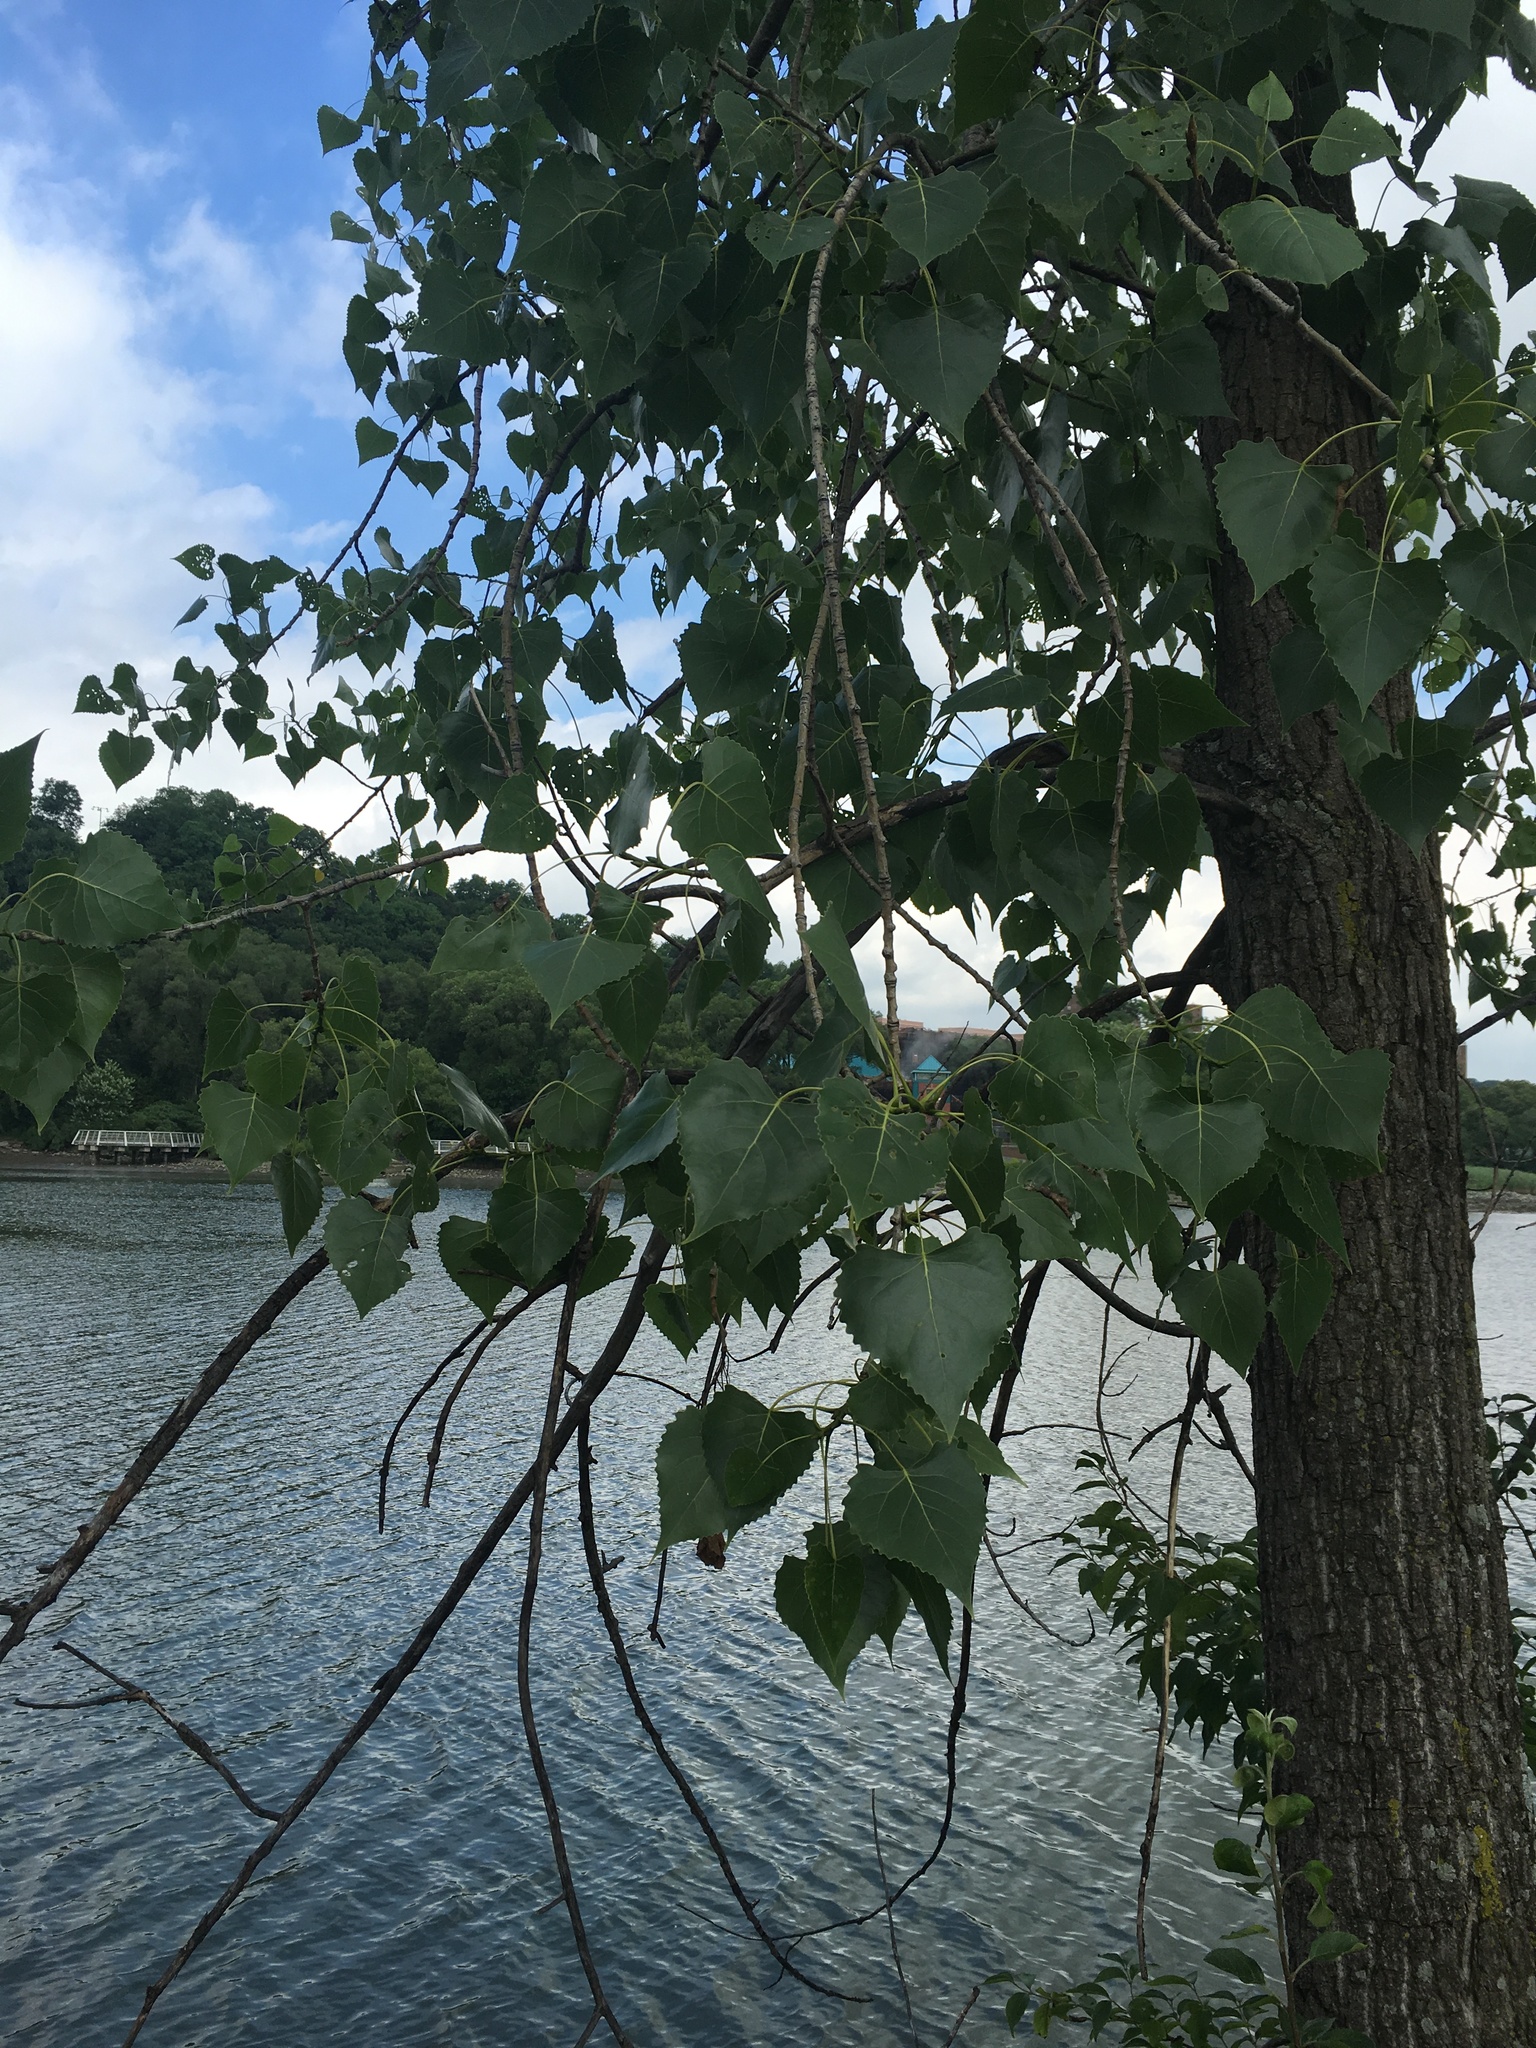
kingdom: Plantae
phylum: Tracheophyta
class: Magnoliopsida
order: Malpighiales
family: Salicaceae
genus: Populus
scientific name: Populus deltoides
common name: Eastern cottonwood
